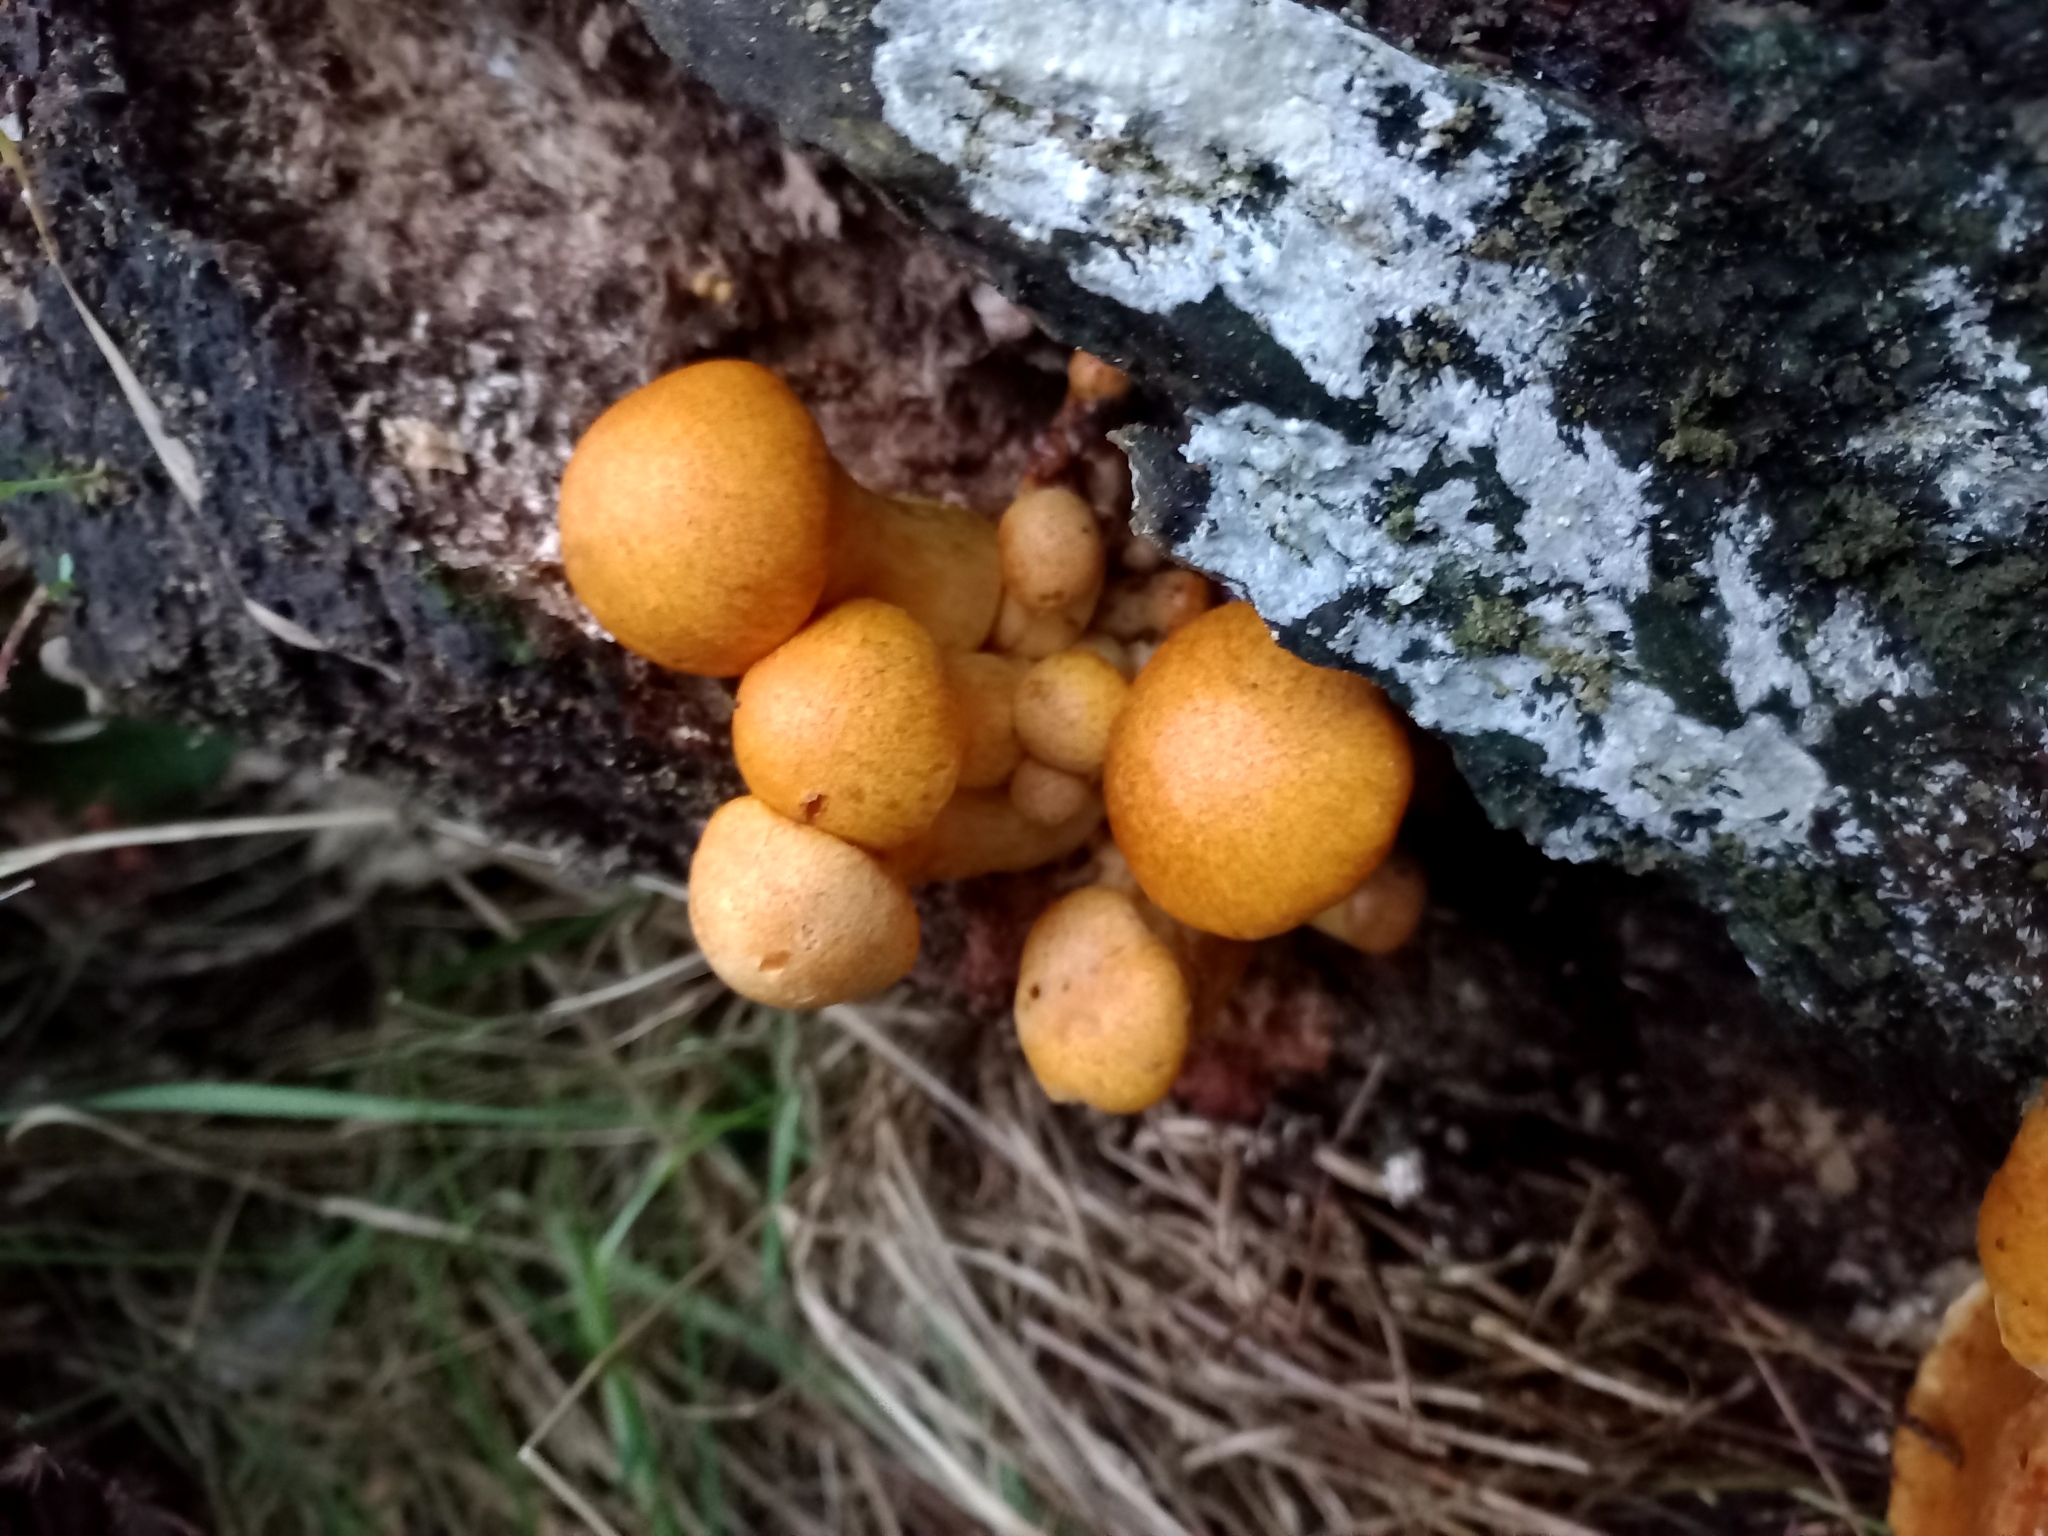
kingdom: Fungi
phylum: Basidiomycota
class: Agaricomycetes
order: Agaricales
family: Hymenogastraceae
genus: Gymnopilus
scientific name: Gymnopilus junonius
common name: Spectacular rustgill
